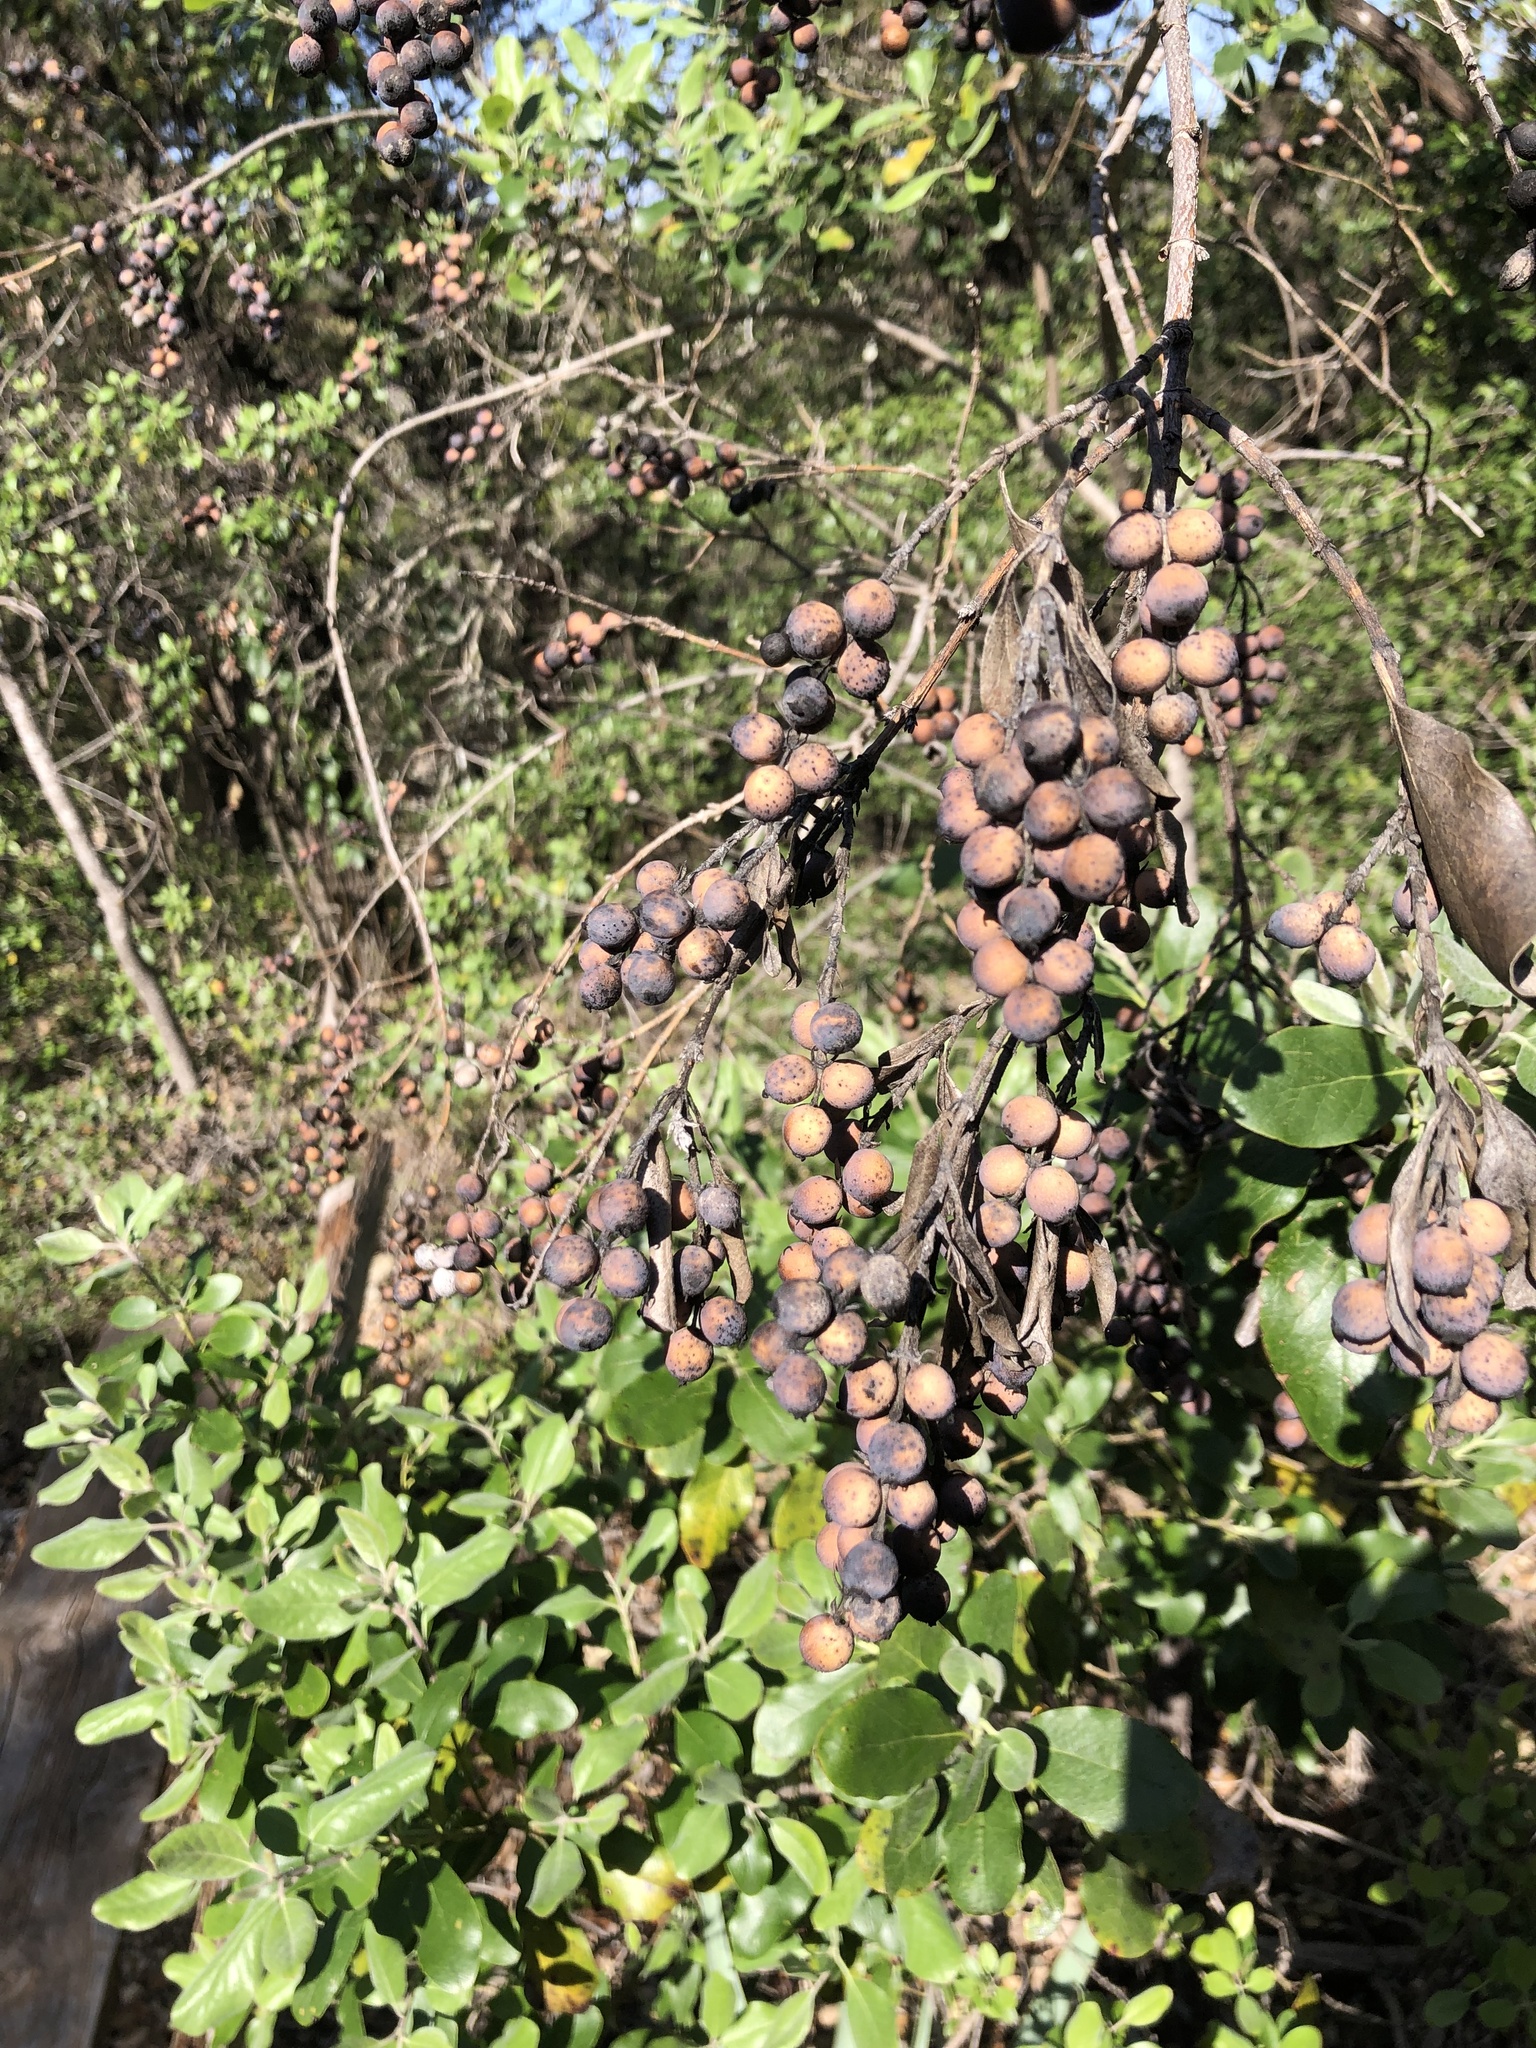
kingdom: Plantae
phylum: Tracheophyta
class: Magnoliopsida
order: Garryales
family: Garryaceae
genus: Garrya
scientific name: Garrya lindheimeri
